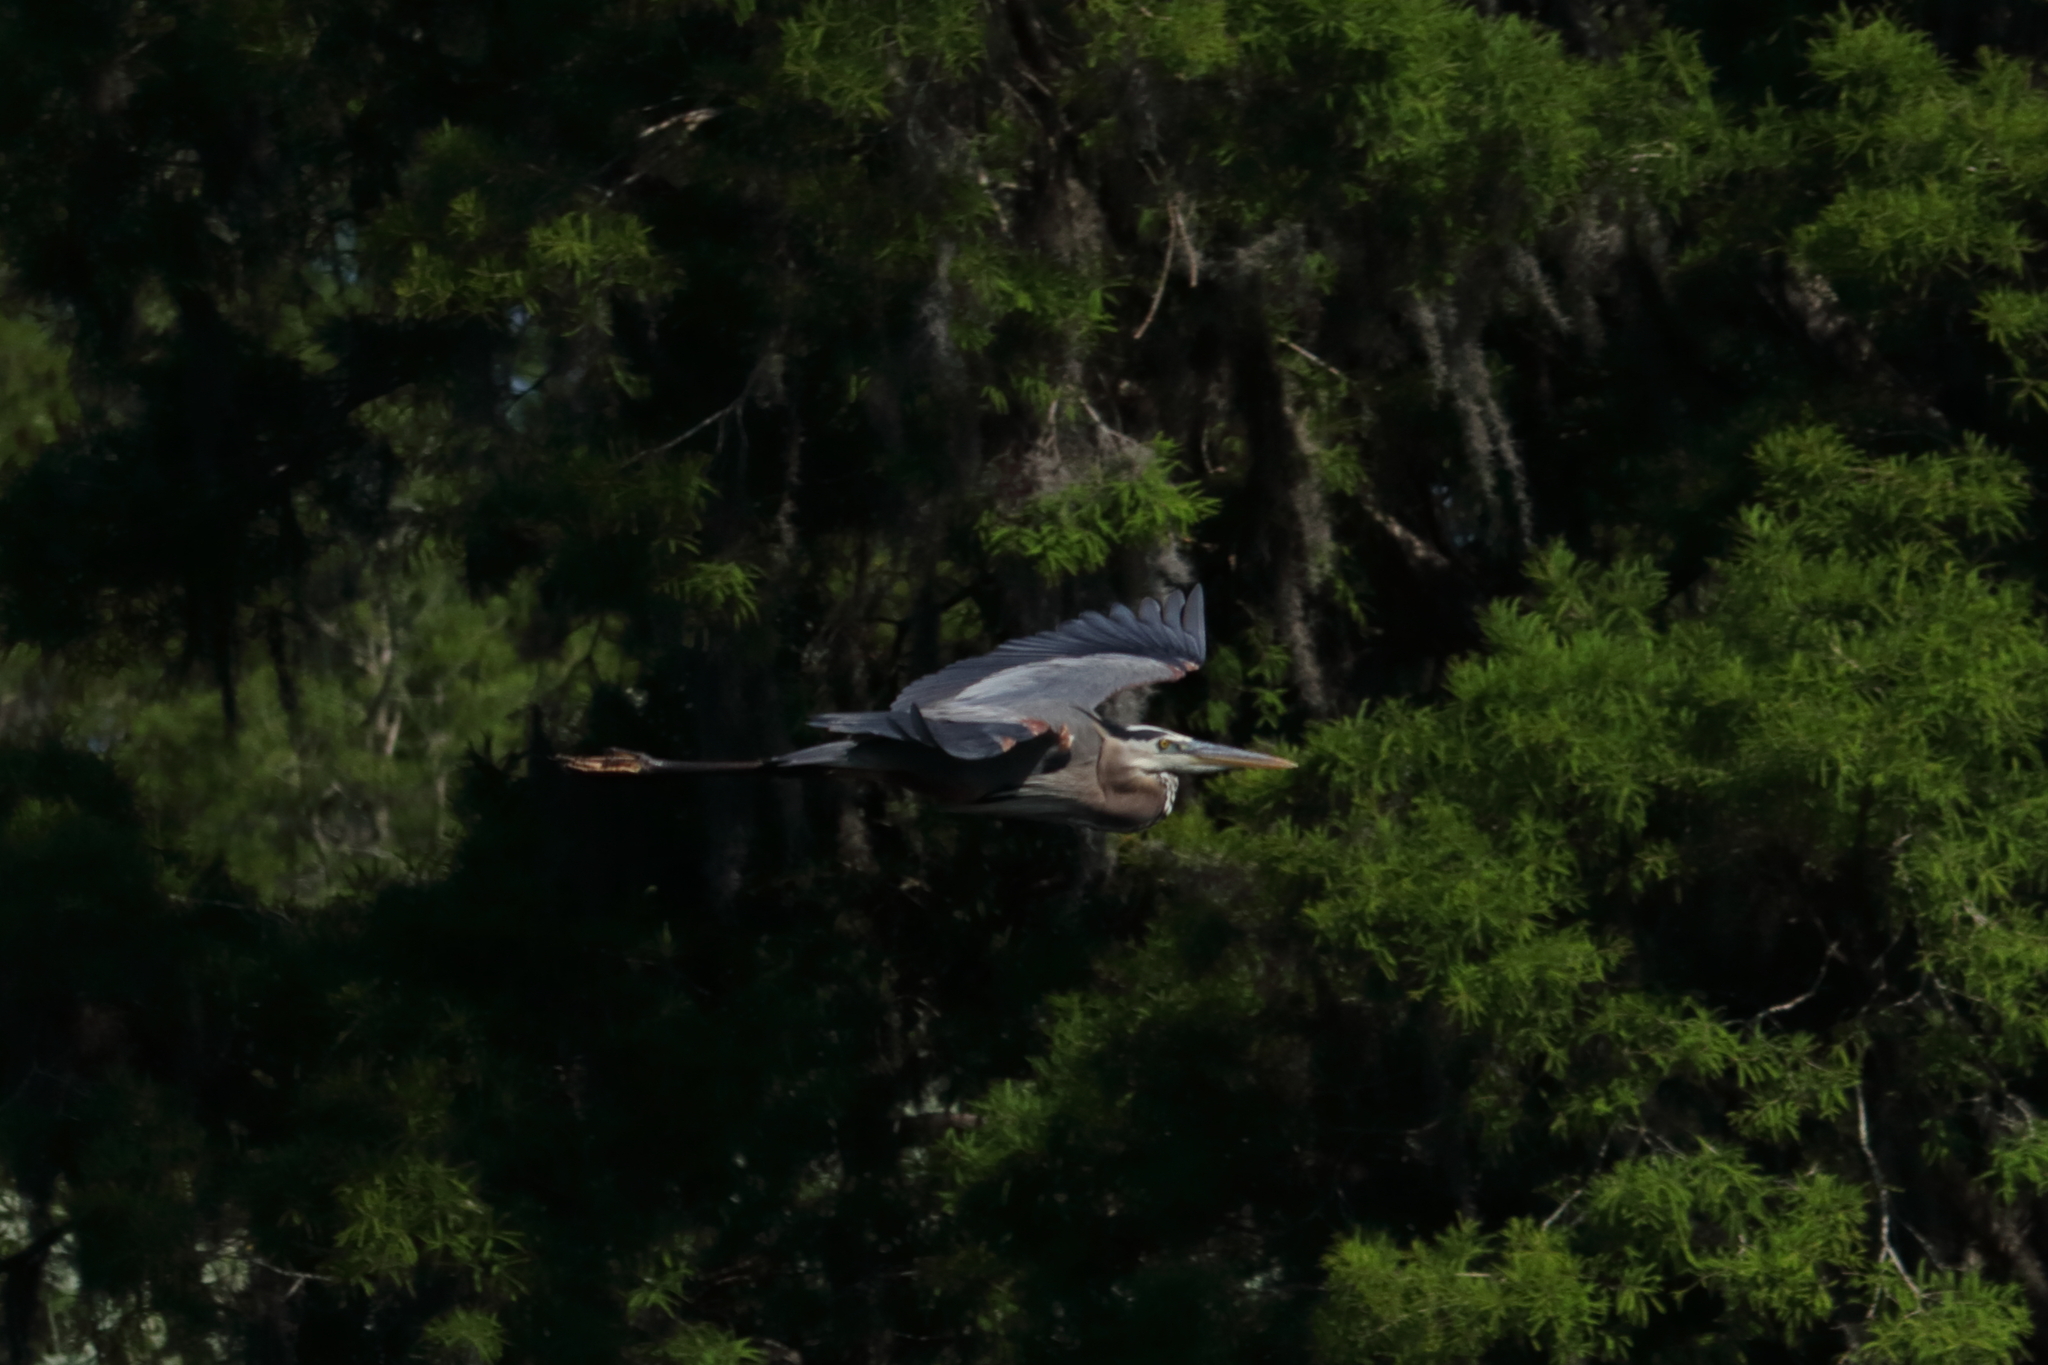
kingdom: Animalia
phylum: Chordata
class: Aves
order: Pelecaniformes
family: Ardeidae
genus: Ardea
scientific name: Ardea herodias
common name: Great blue heron
